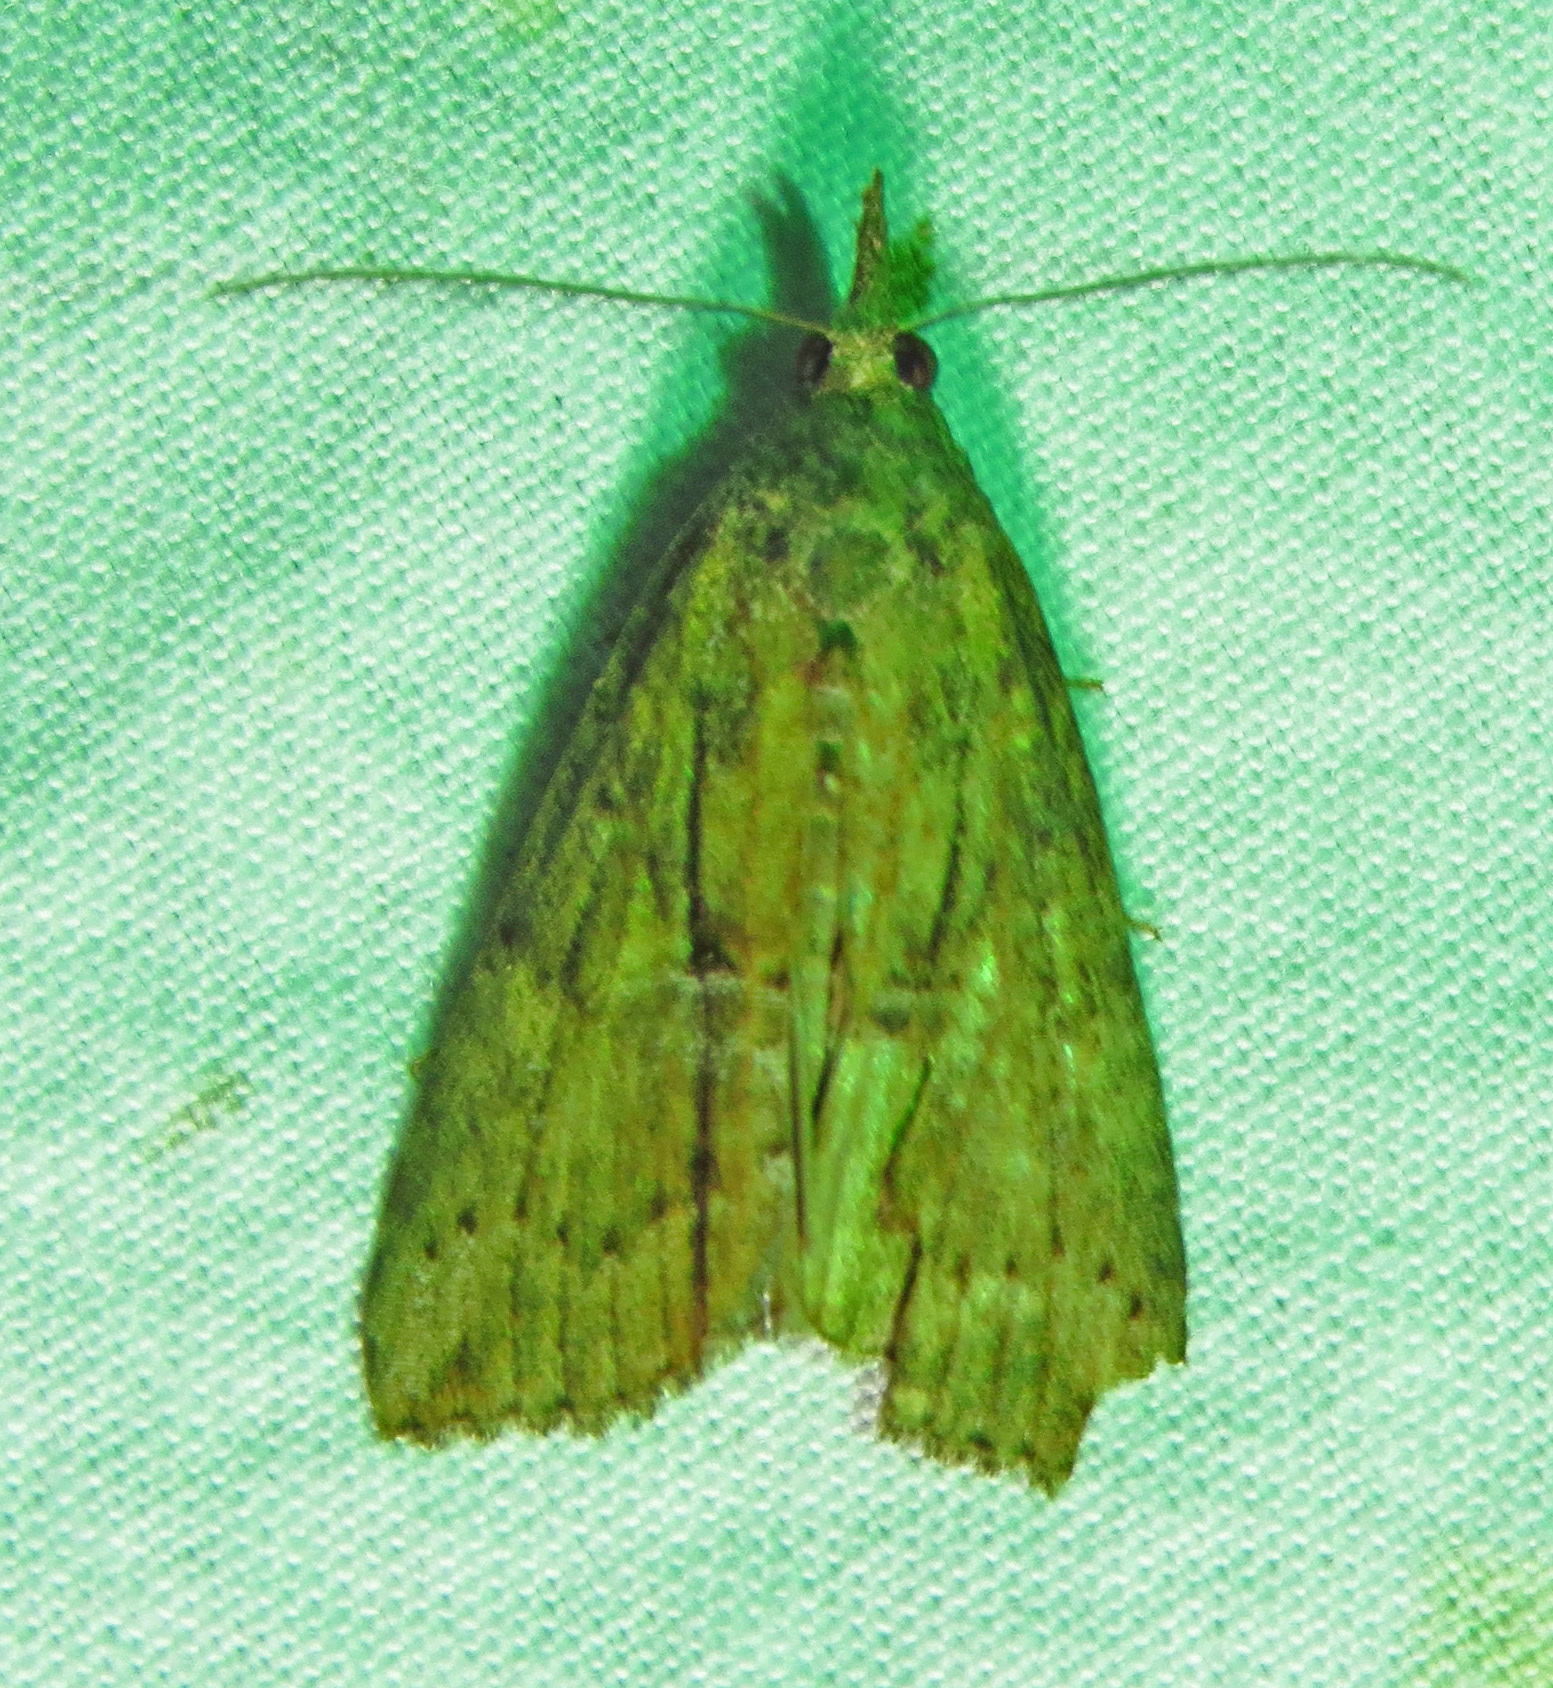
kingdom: Animalia
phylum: Arthropoda
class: Insecta
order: Lepidoptera
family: Erebidae
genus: Hypena
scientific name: Hypena scabra
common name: Green cloverworm
